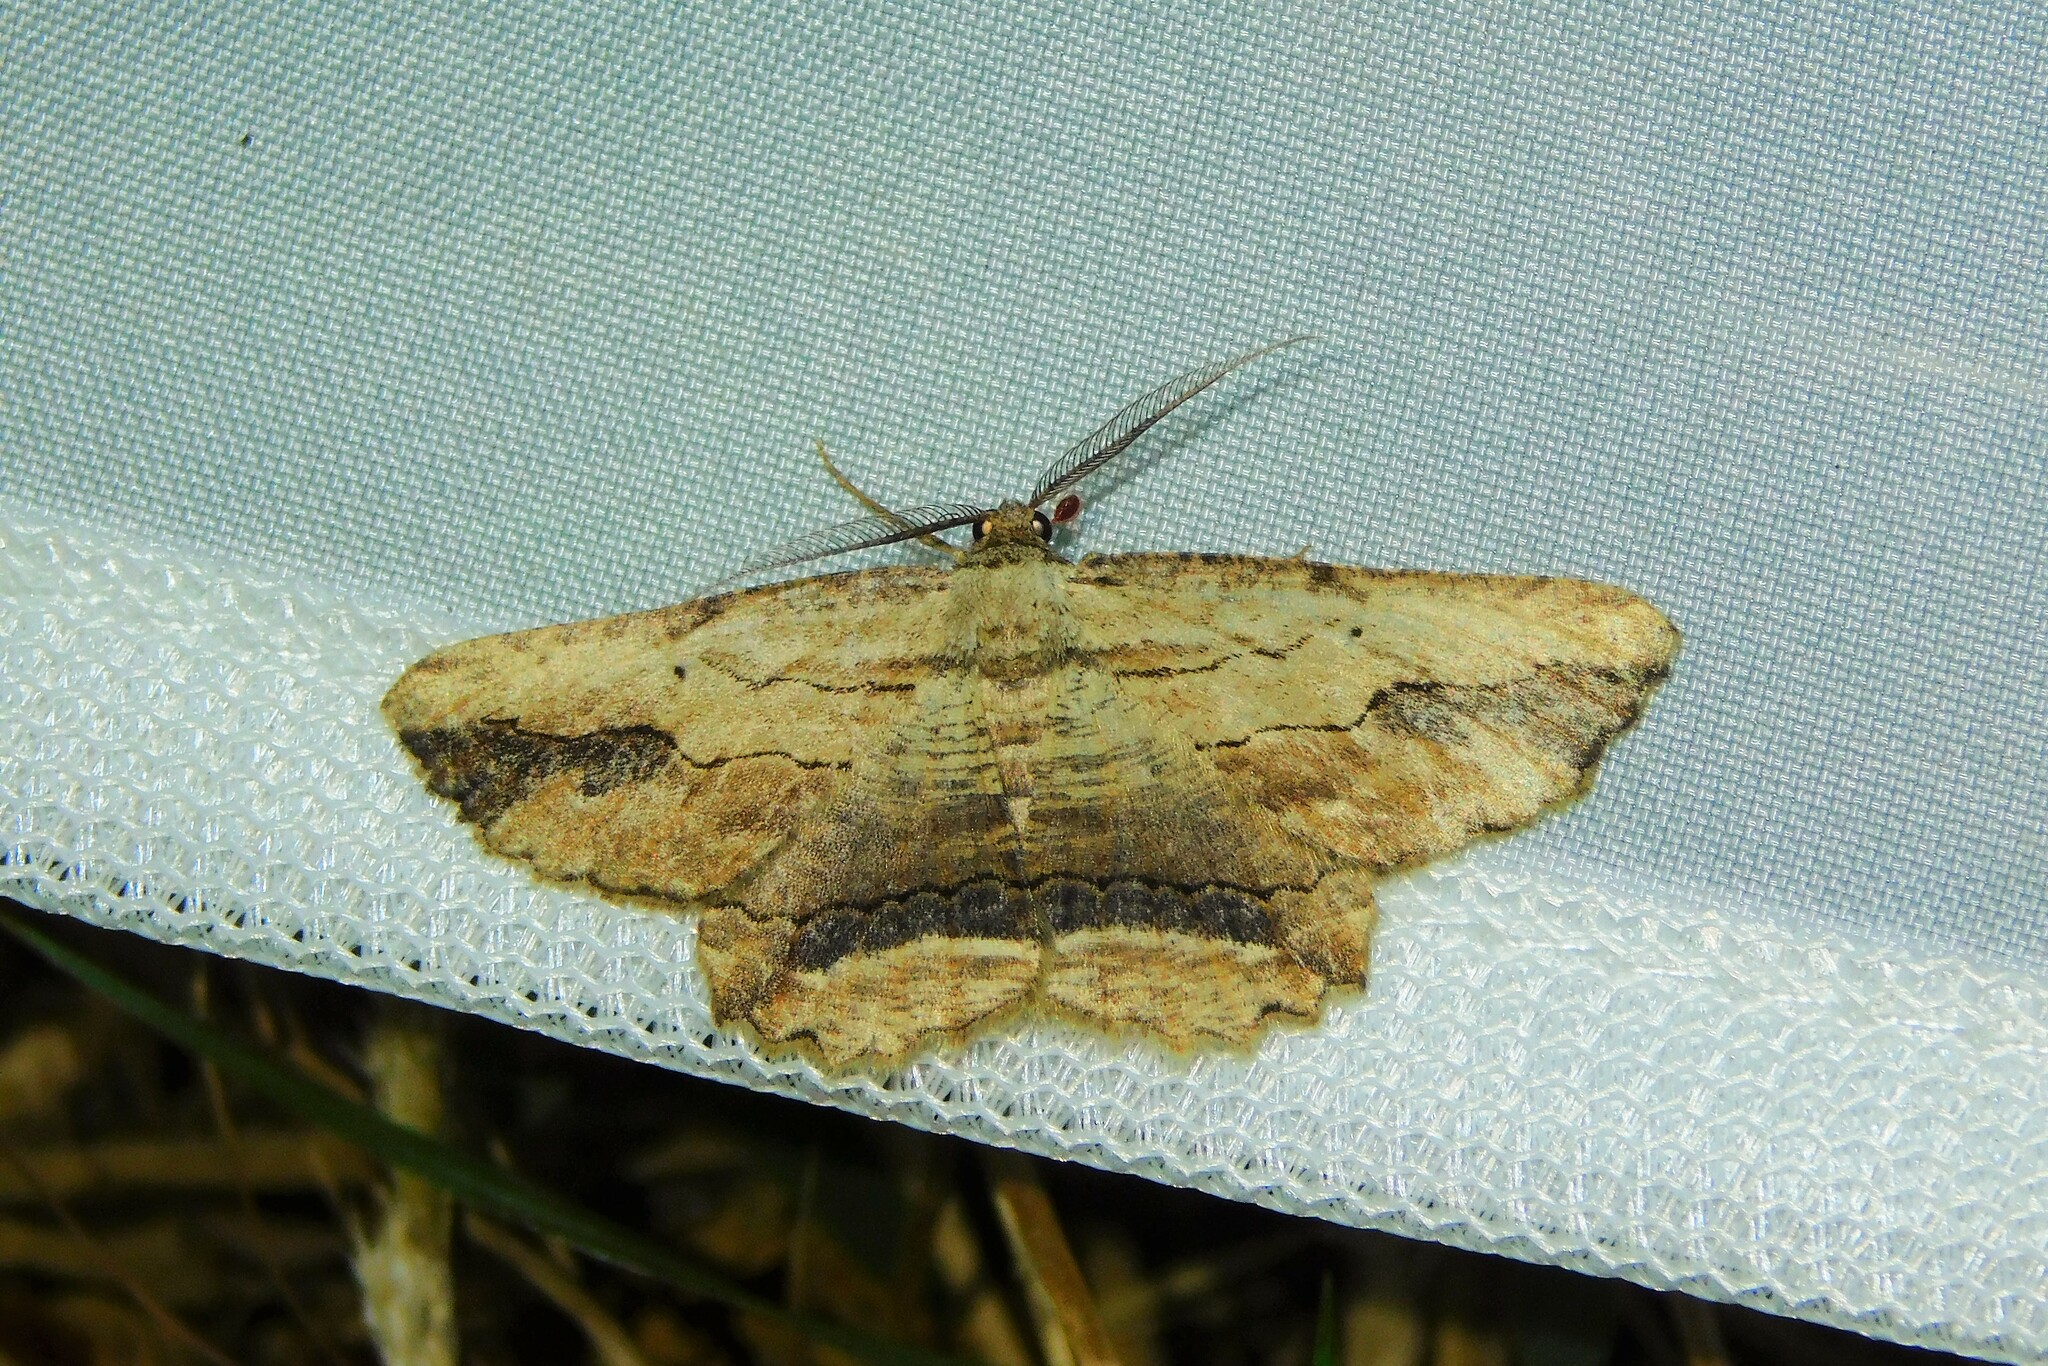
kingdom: Animalia
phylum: Arthropoda
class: Insecta
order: Lepidoptera
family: Geometridae
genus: Menophra
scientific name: Menophra abruptaria
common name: Waved umber
